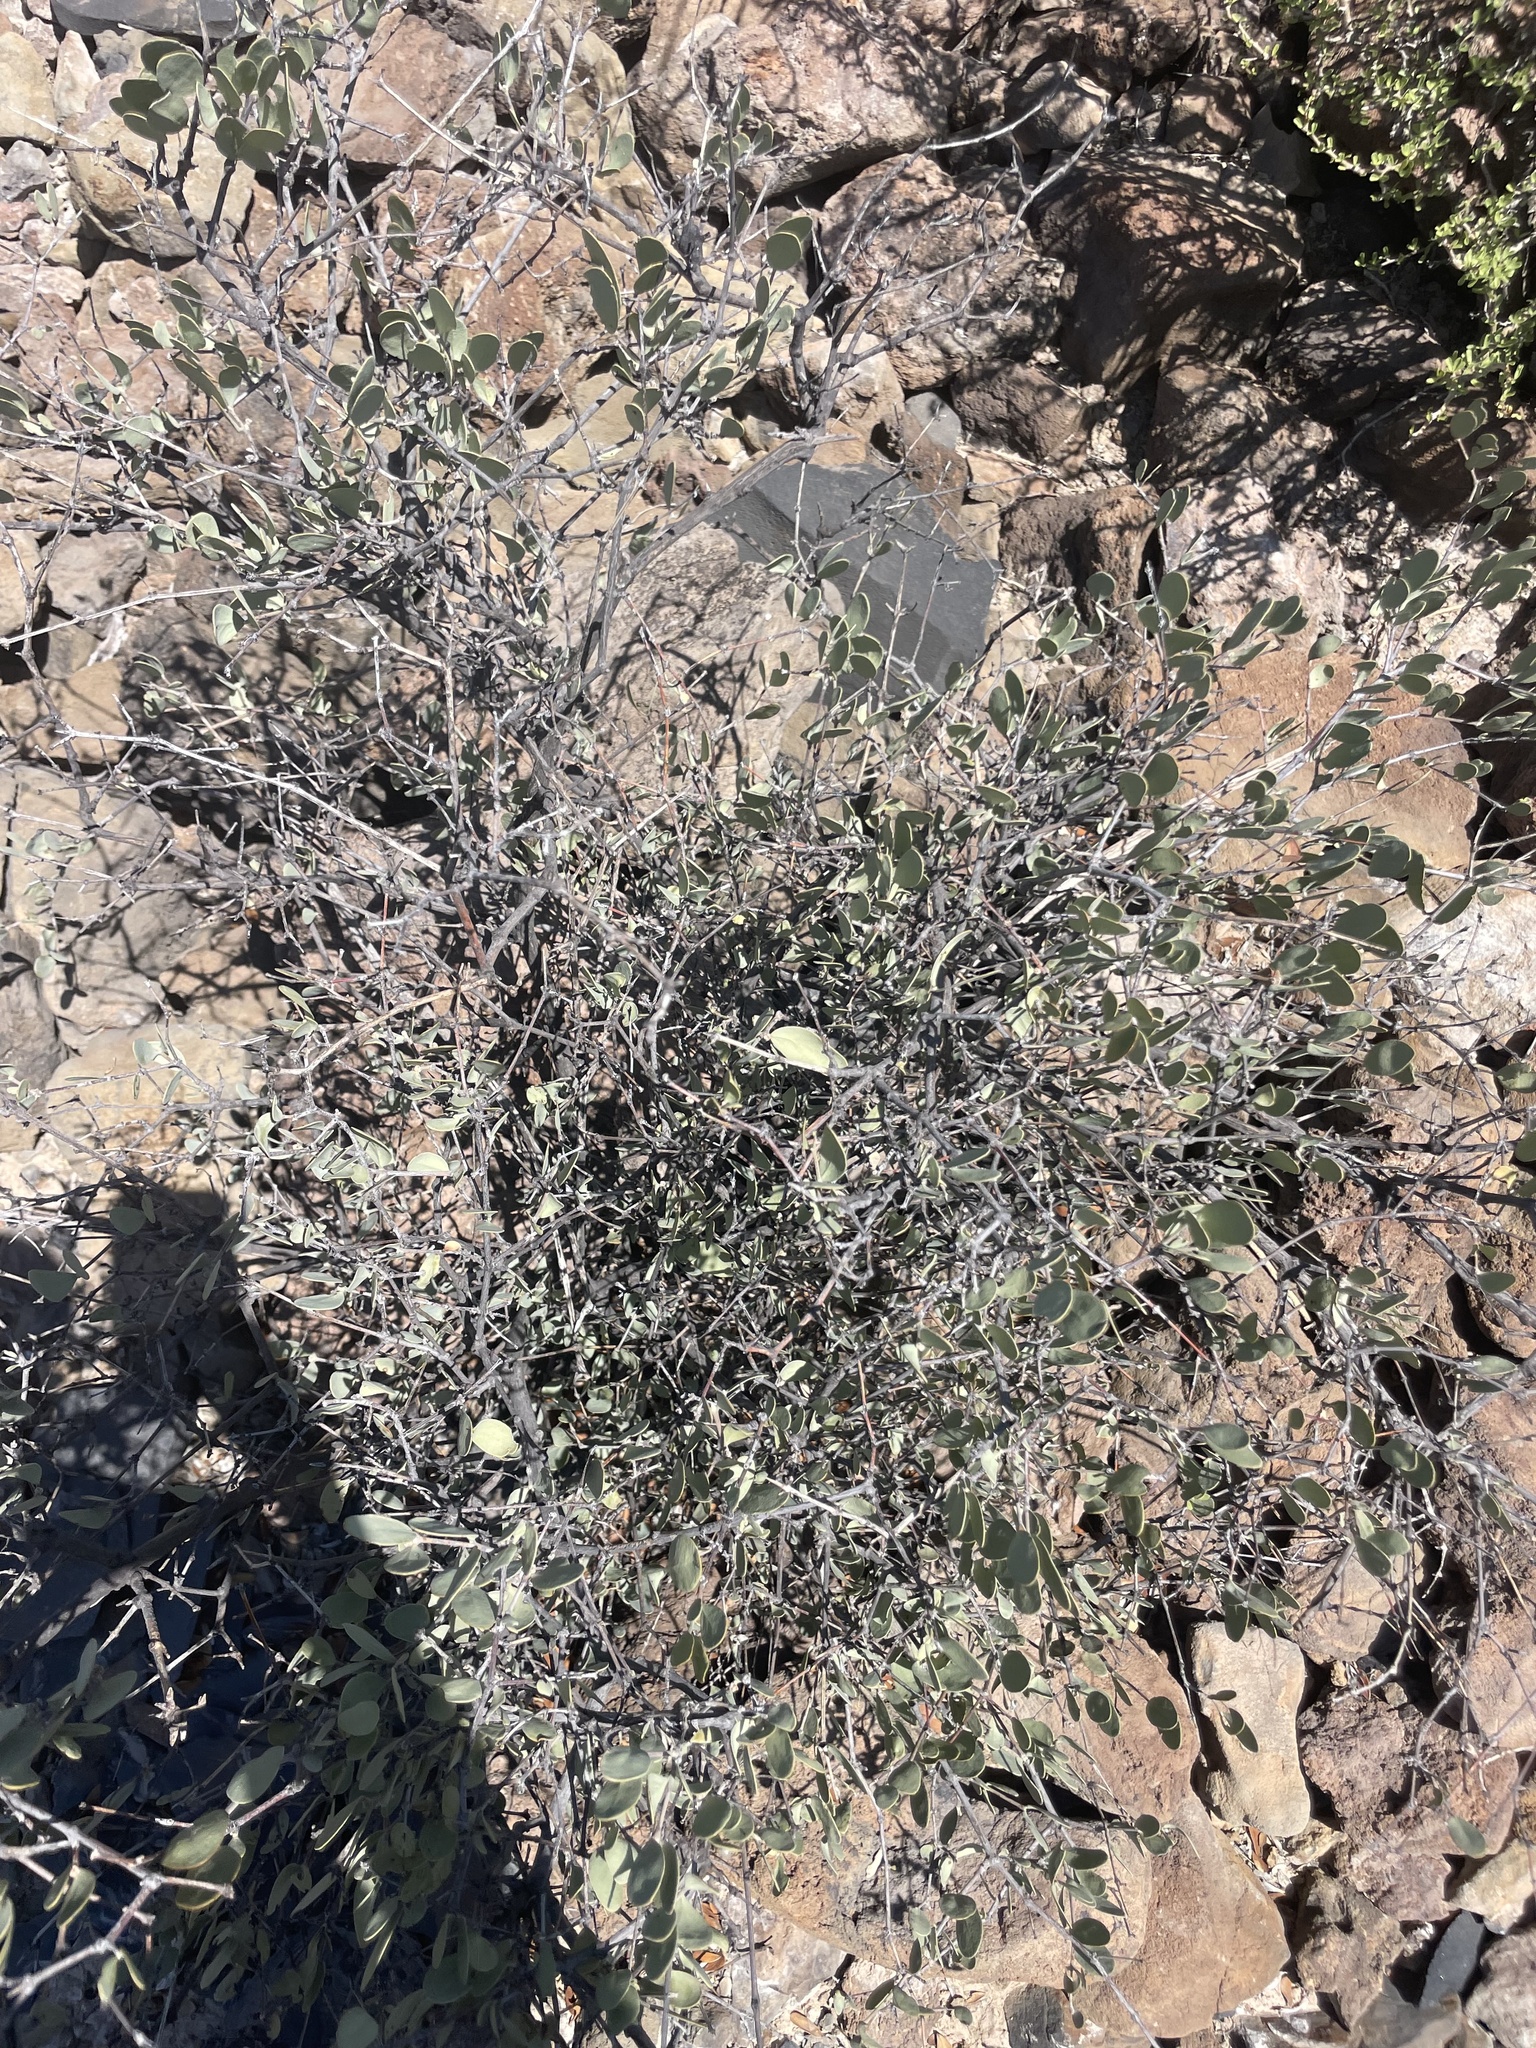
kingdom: Plantae
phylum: Tracheophyta
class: Magnoliopsida
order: Caryophyllales
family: Simmondsiaceae
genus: Simmondsia
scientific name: Simmondsia chinensis
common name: Jojoba
